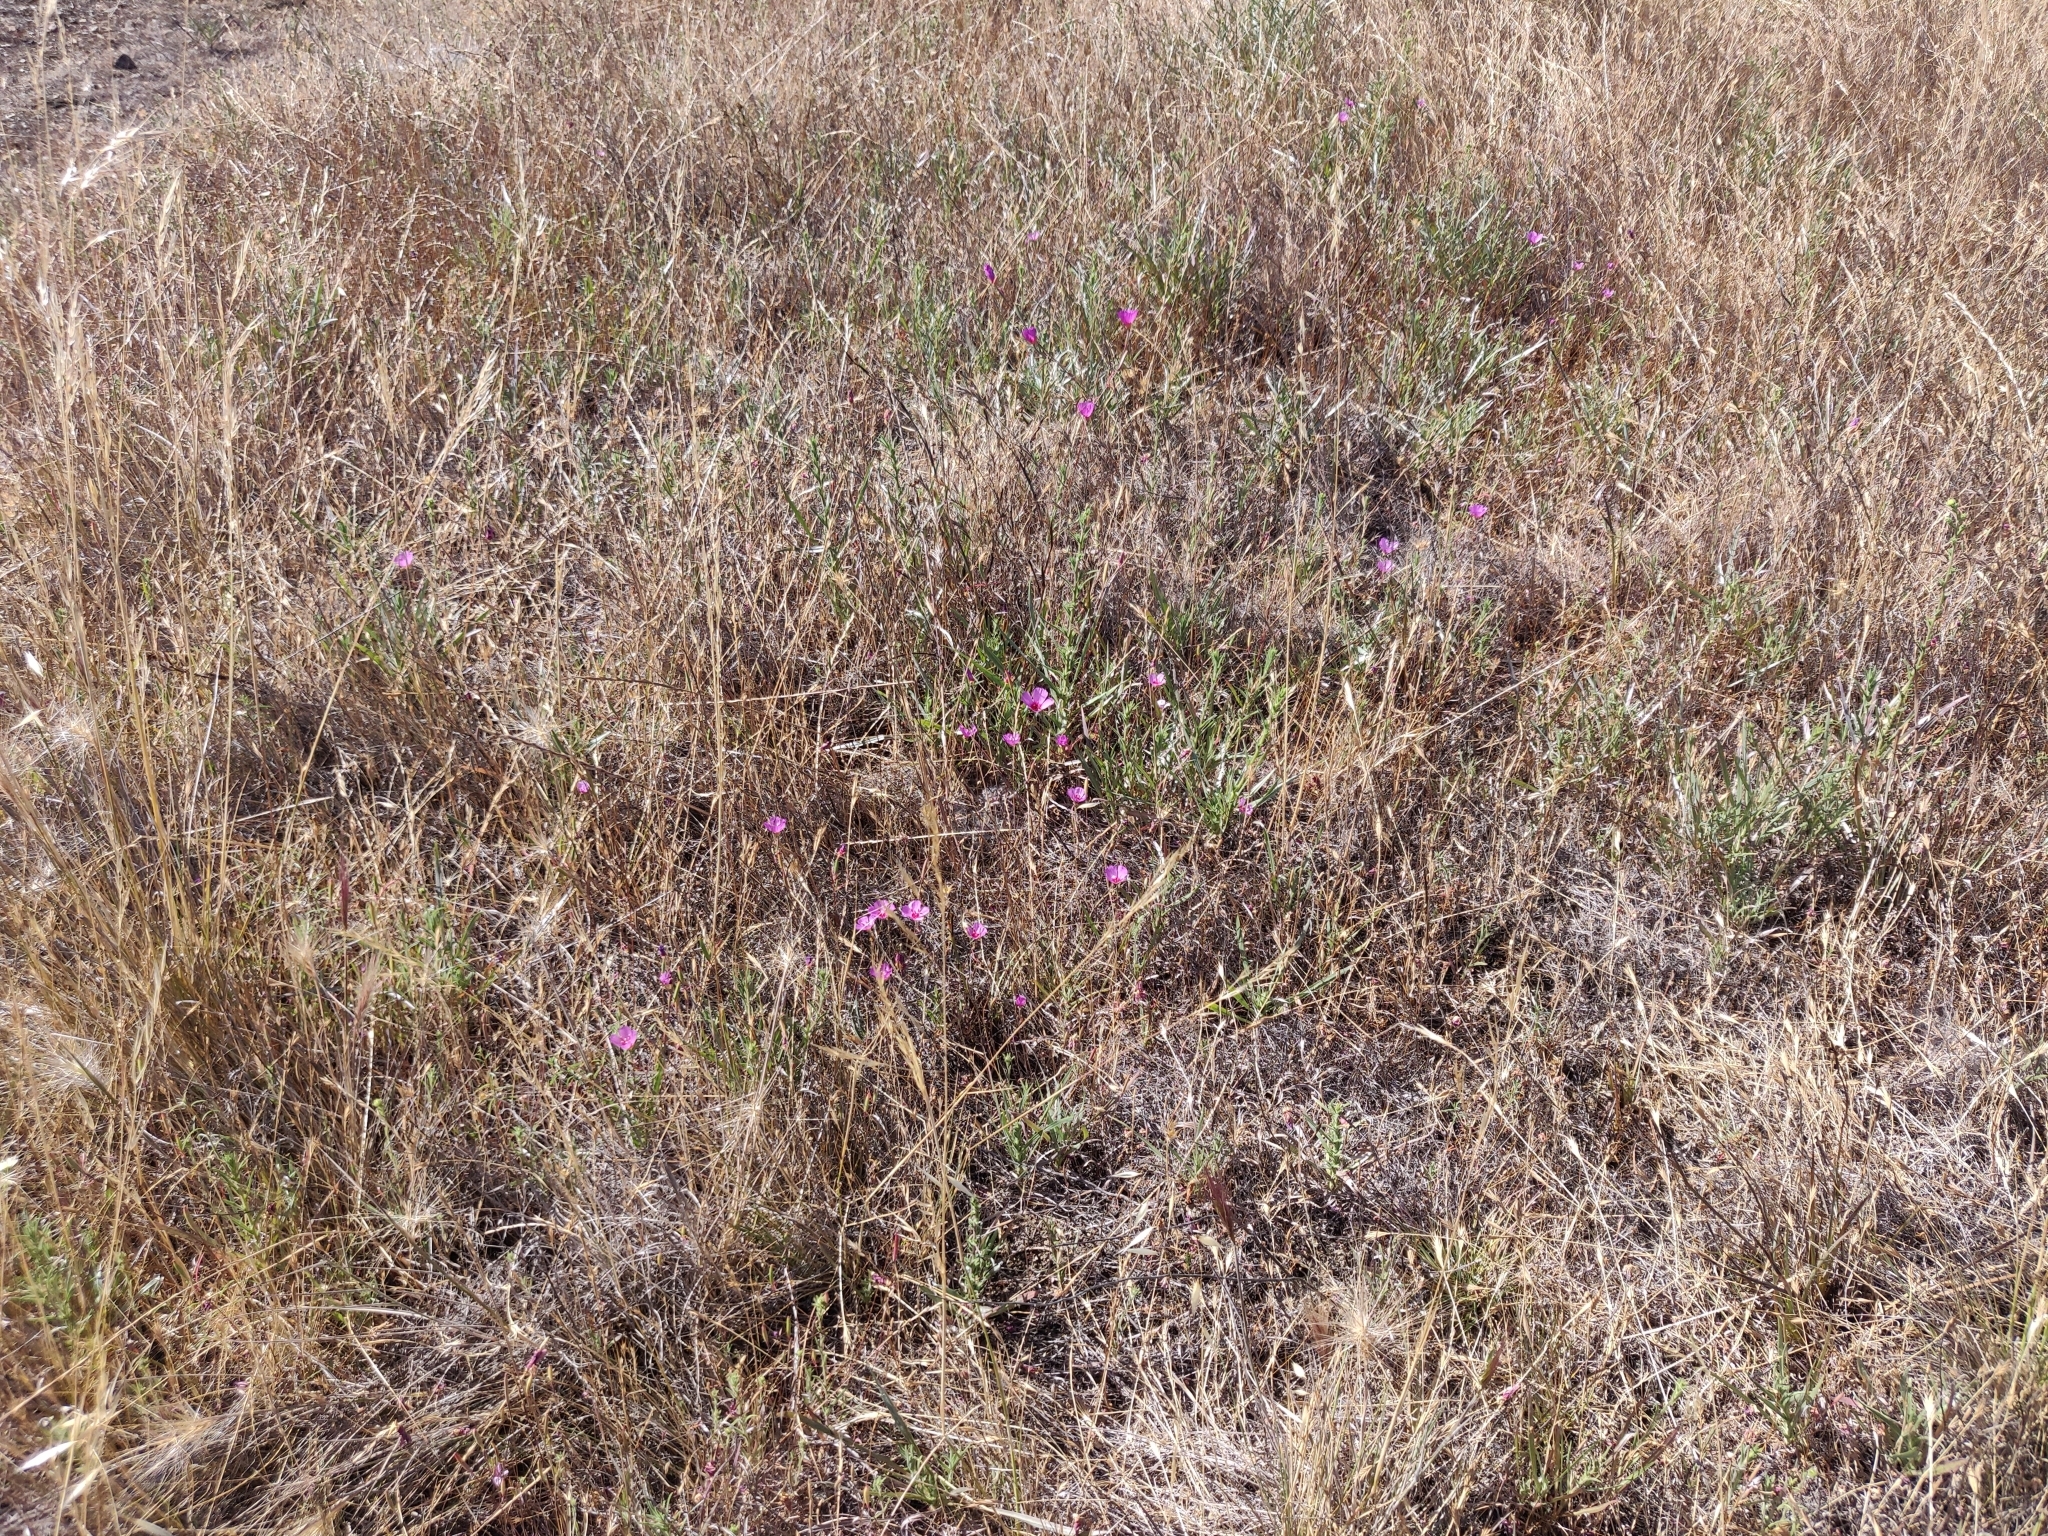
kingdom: Plantae
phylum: Tracheophyta
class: Magnoliopsida
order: Myrtales
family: Onagraceae
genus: Clarkia
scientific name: Clarkia rubicunda
